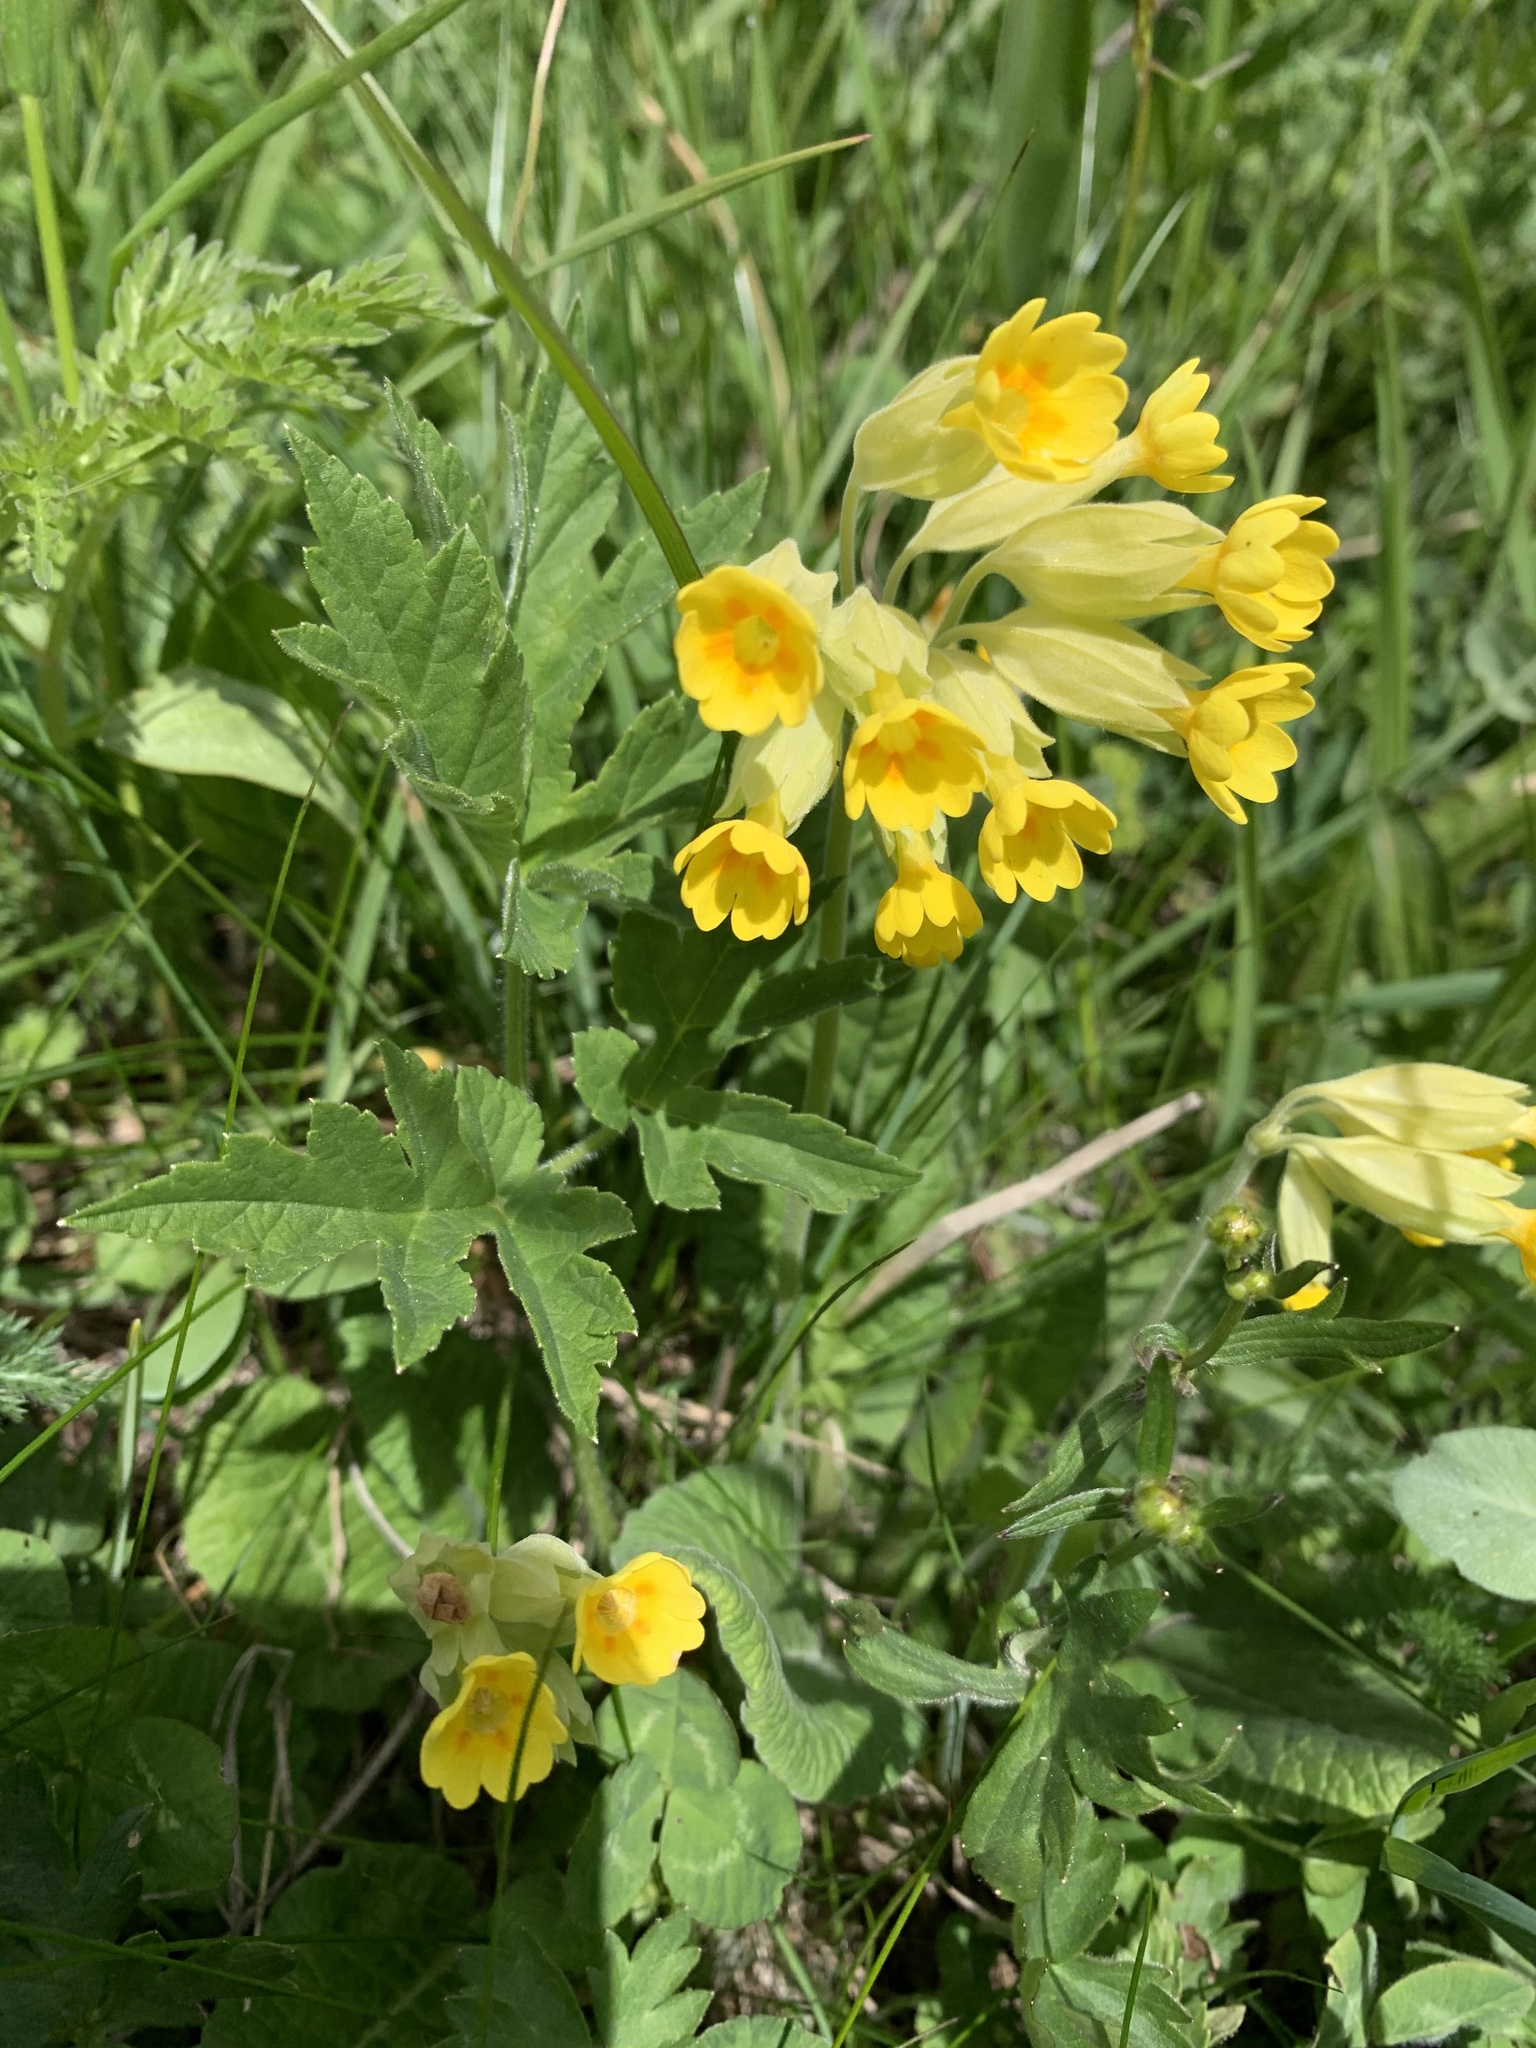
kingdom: Plantae
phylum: Tracheophyta
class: Magnoliopsida
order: Ericales
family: Primulaceae
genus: Primula
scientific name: Primula veris
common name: Cowslip
